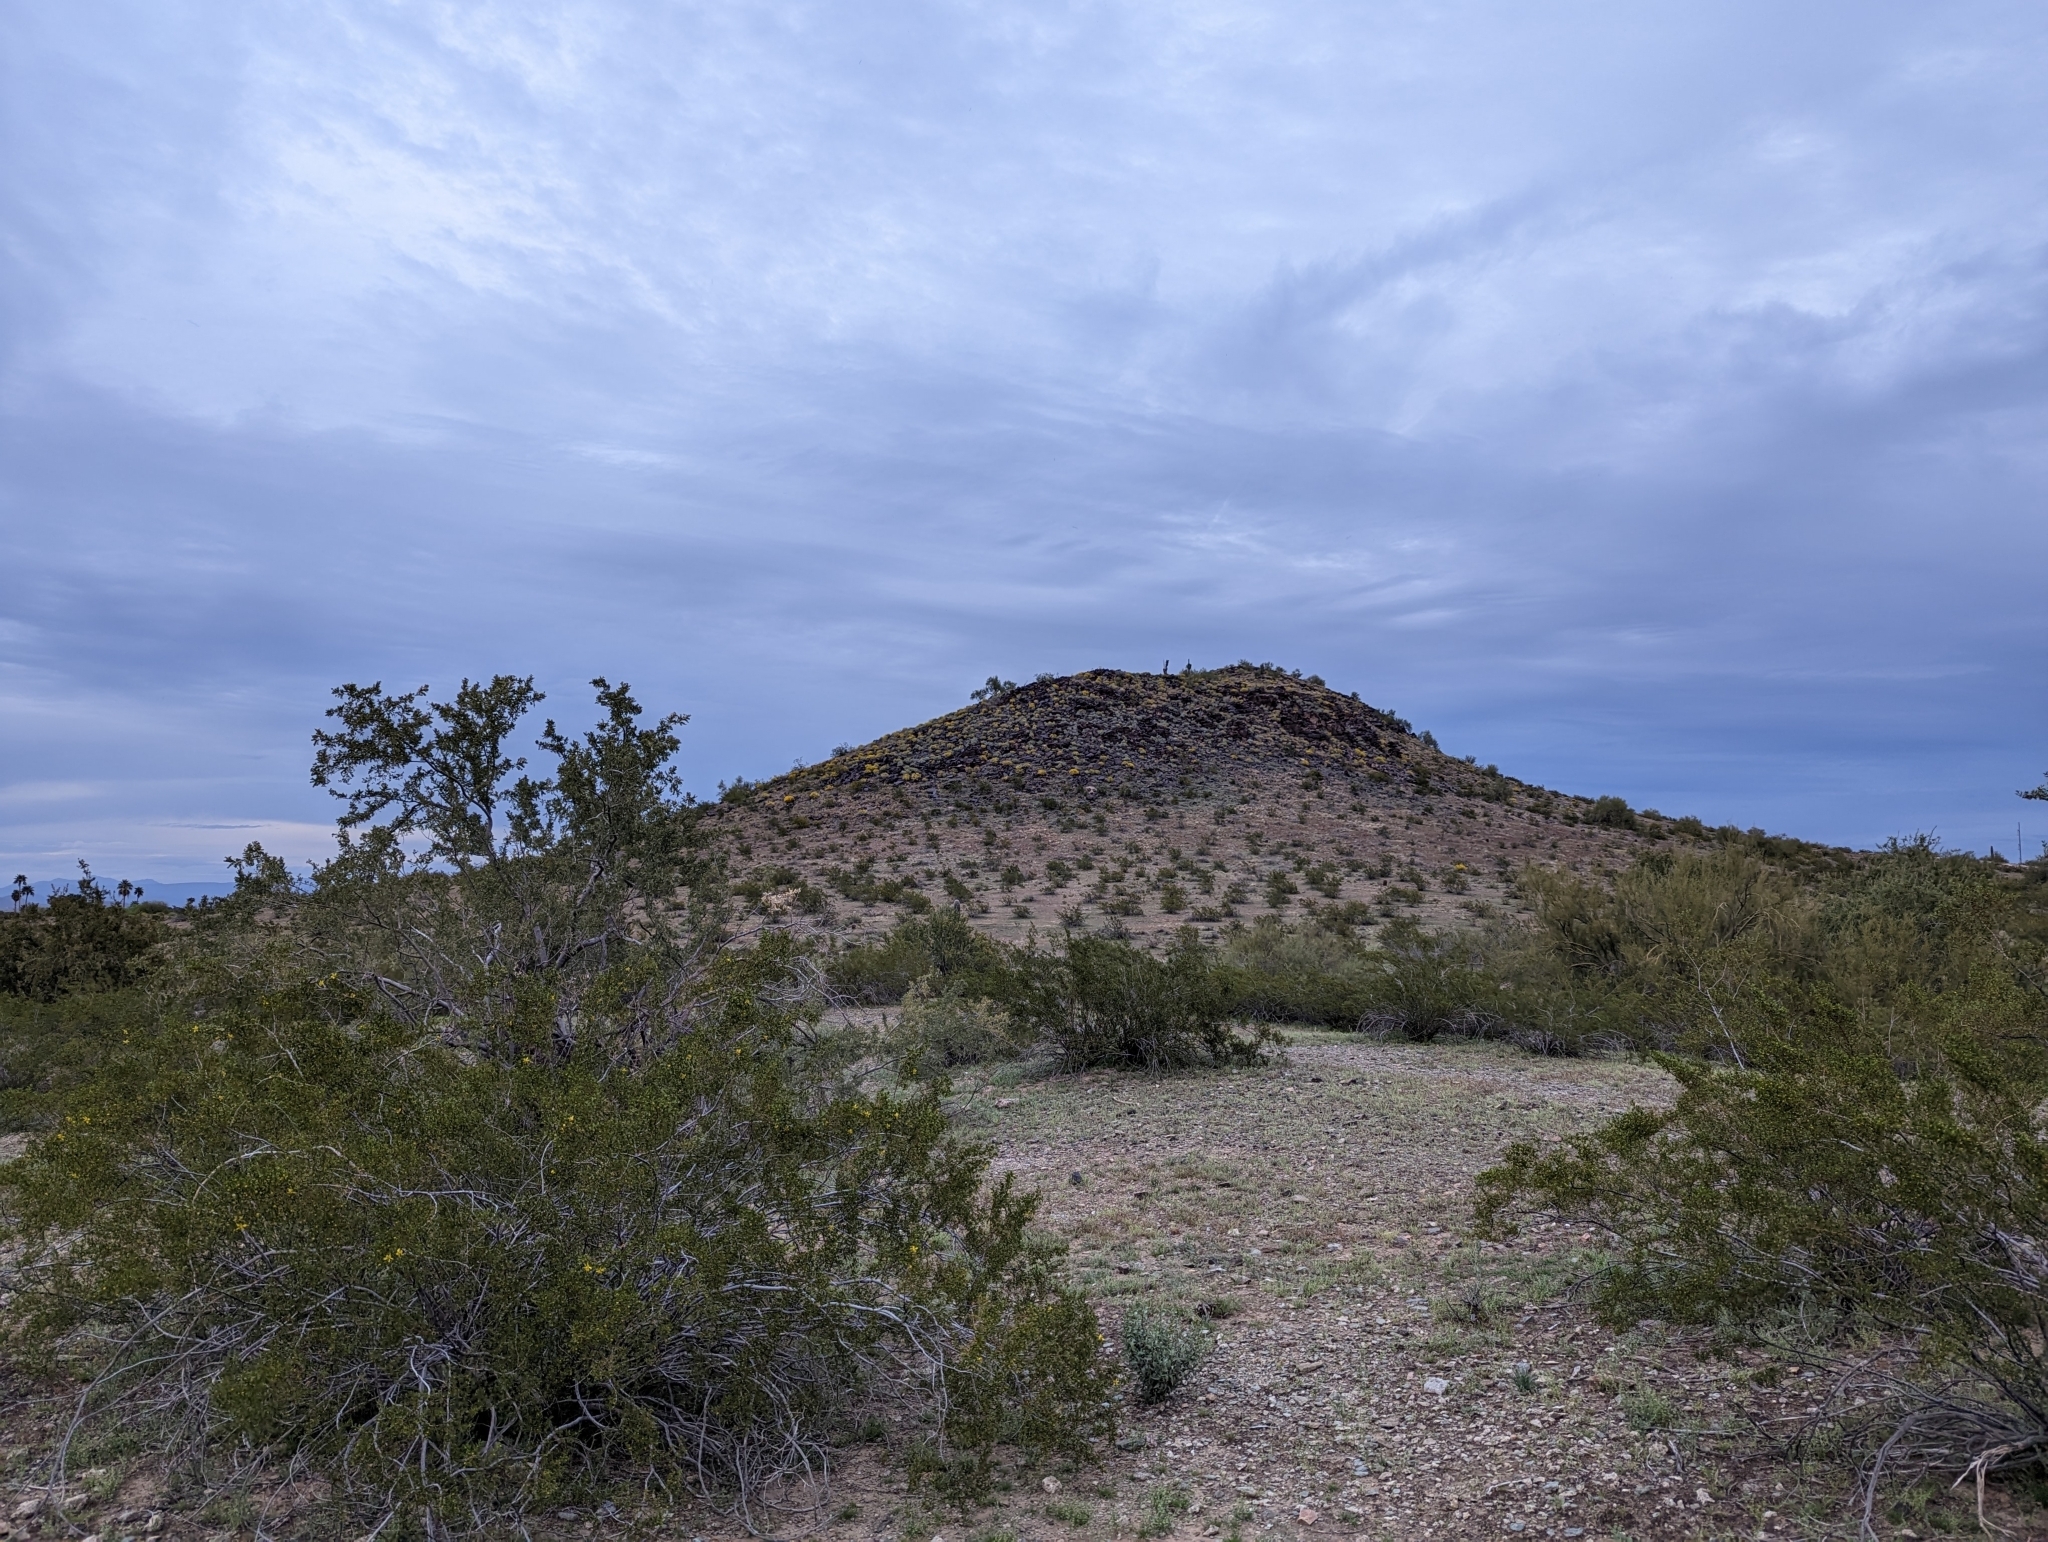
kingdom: Plantae
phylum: Tracheophyta
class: Magnoliopsida
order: Zygophyllales
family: Zygophyllaceae
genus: Larrea
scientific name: Larrea tridentata
